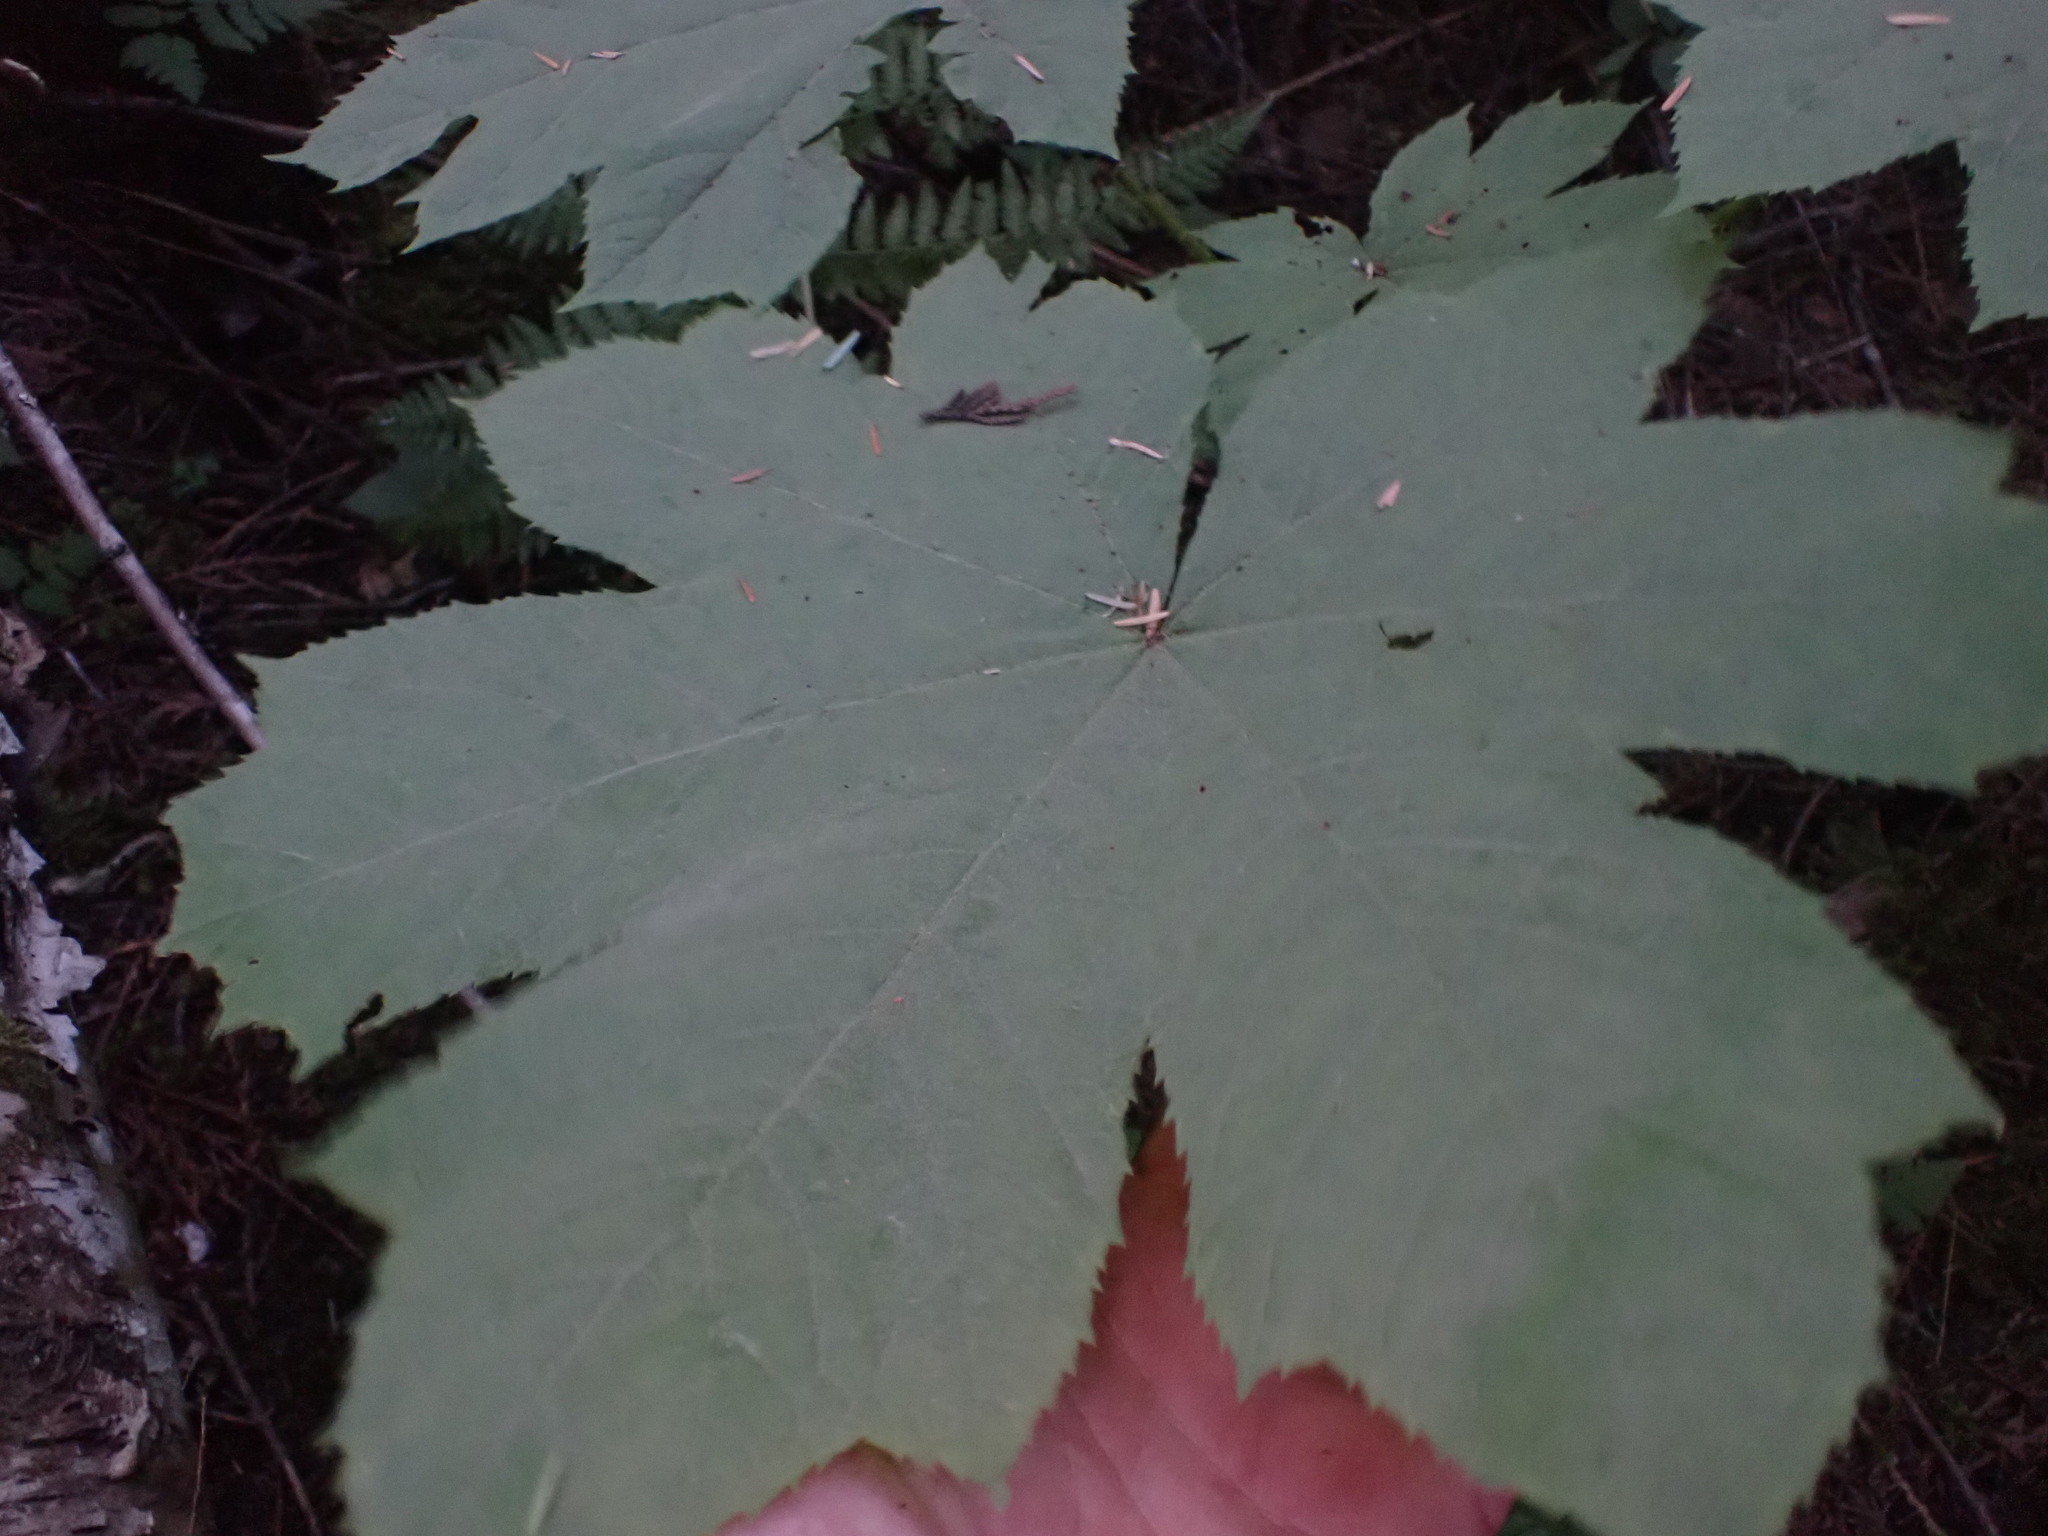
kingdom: Plantae
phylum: Tracheophyta
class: Magnoliopsida
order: Apiales
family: Araliaceae
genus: Oplopanax
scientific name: Oplopanax horridus
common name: Devil's walking-stick
